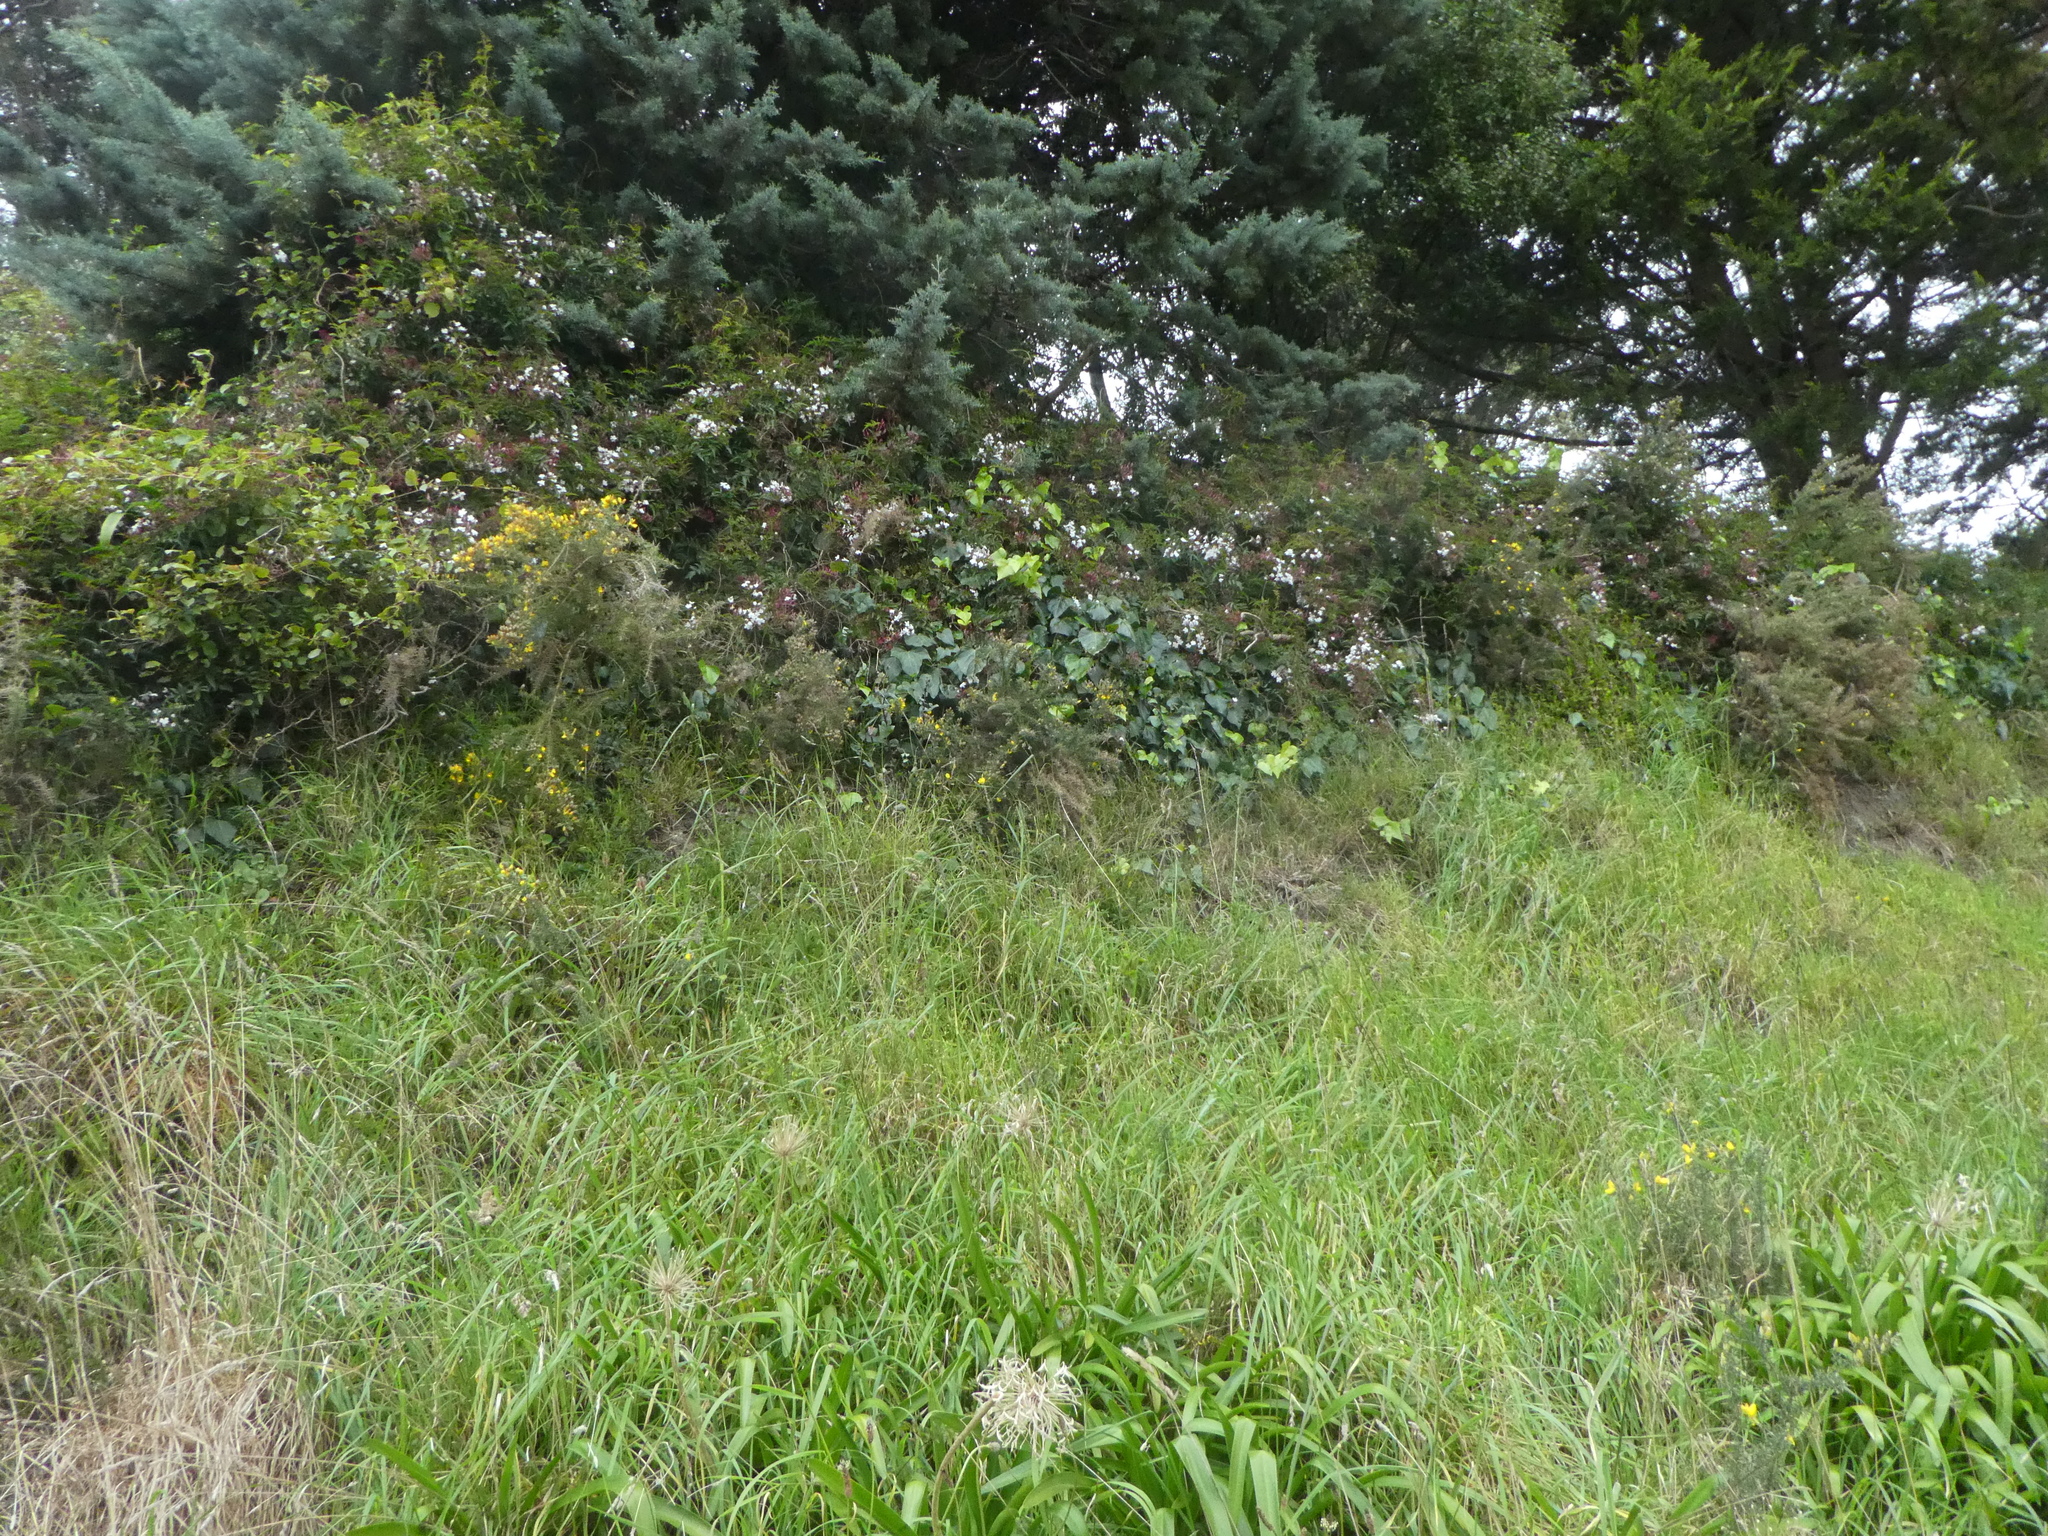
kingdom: Plantae
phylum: Tracheophyta
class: Magnoliopsida
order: Lamiales
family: Oleaceae
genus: Jasminum
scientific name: Jasminum polyanthum
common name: Pink jasmine
